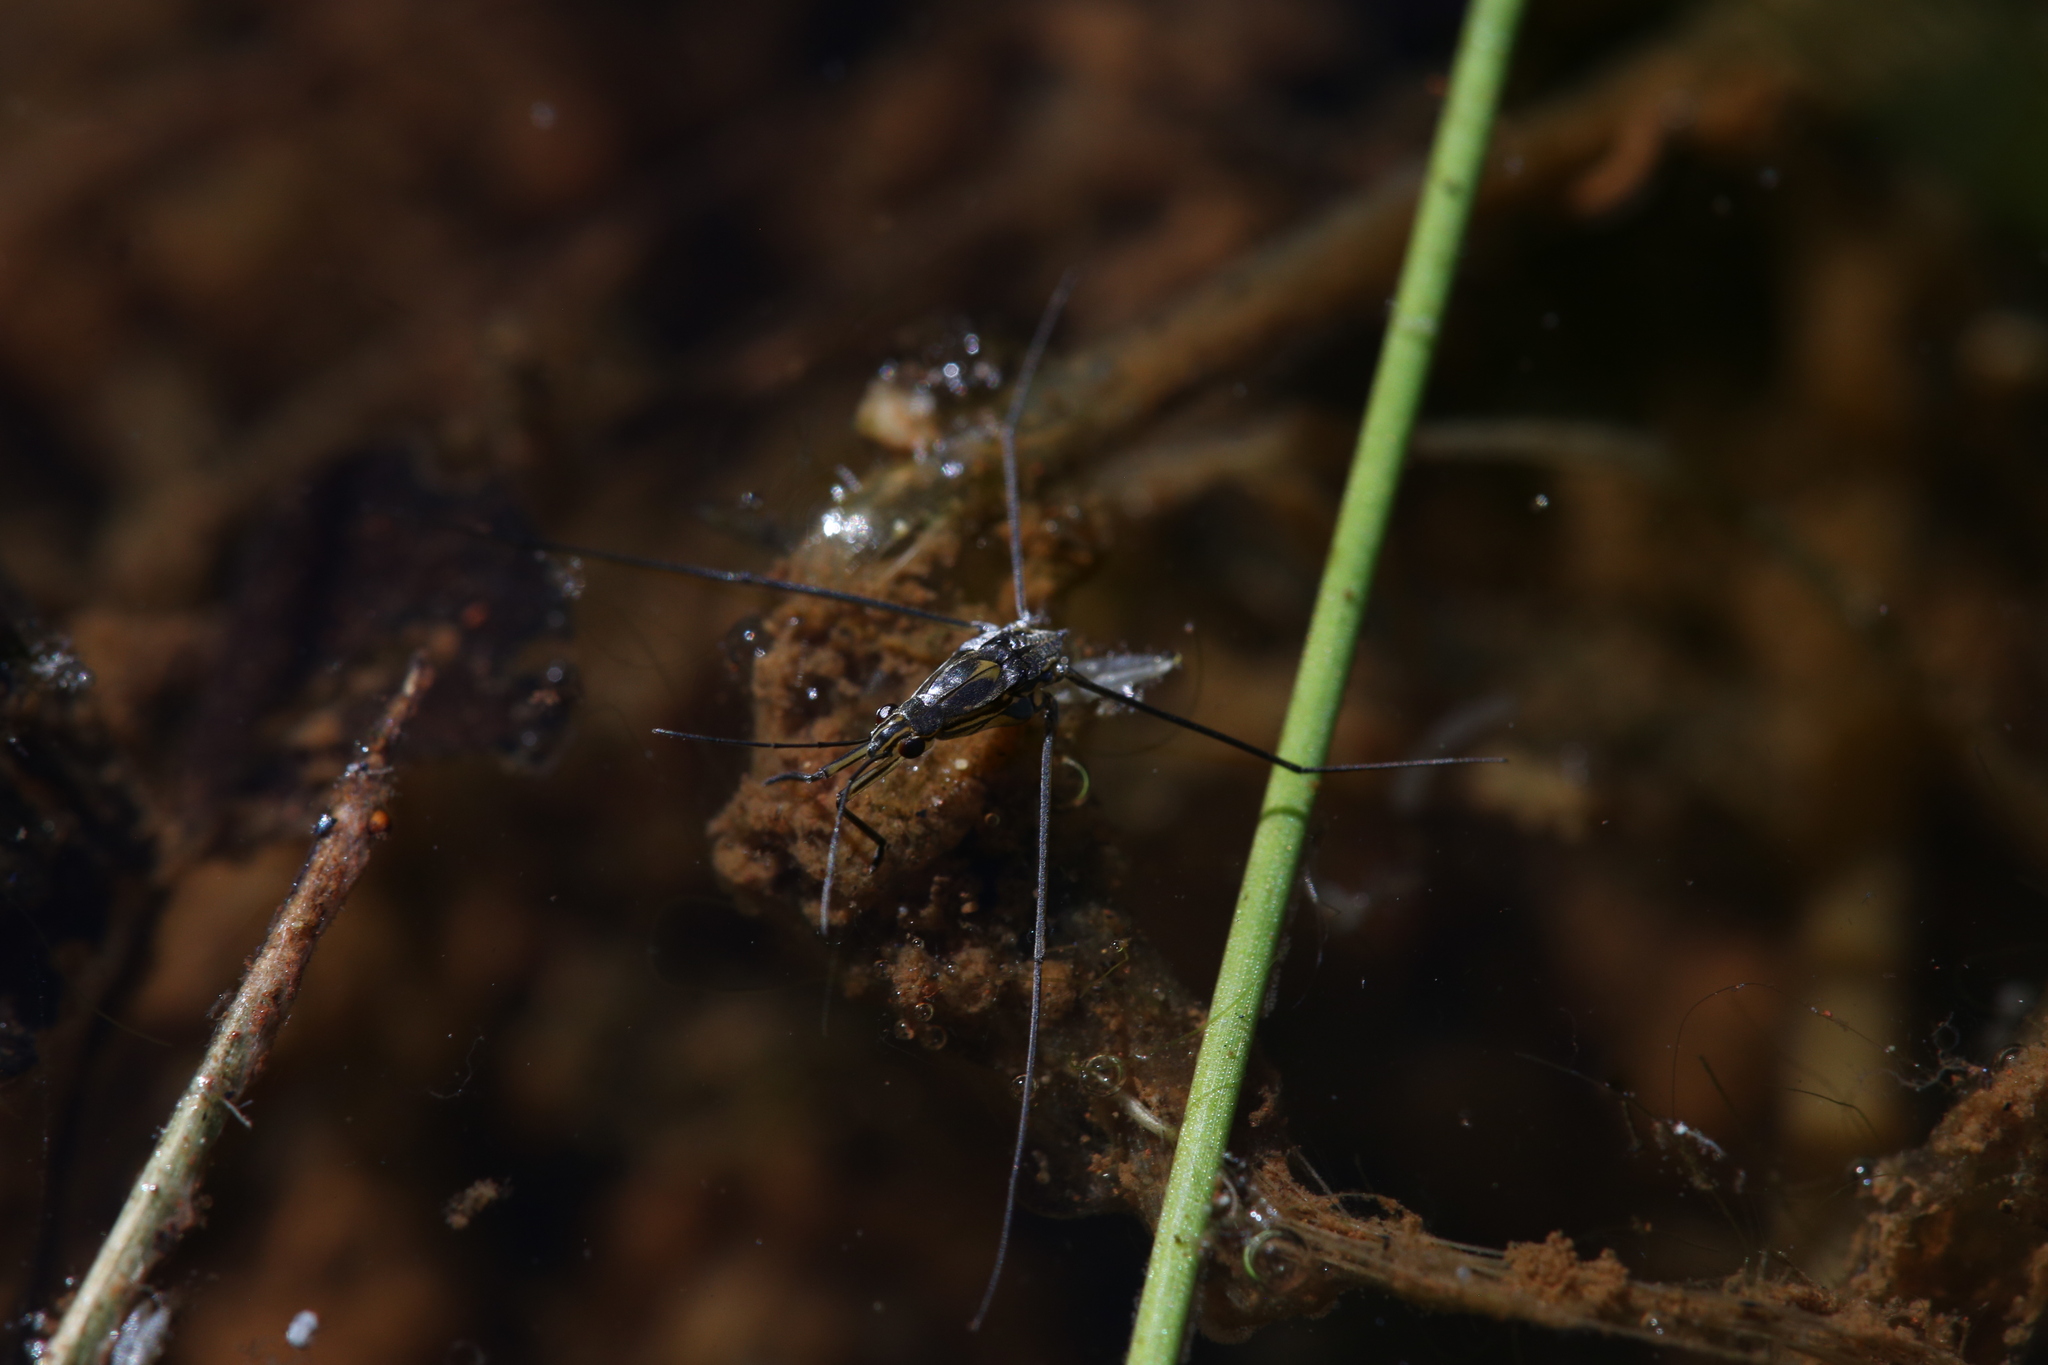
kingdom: Animalia
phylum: Arthropoda
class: Insecta
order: Hemiptera
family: Gerridae
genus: Limnogonus
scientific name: Limnogonus
